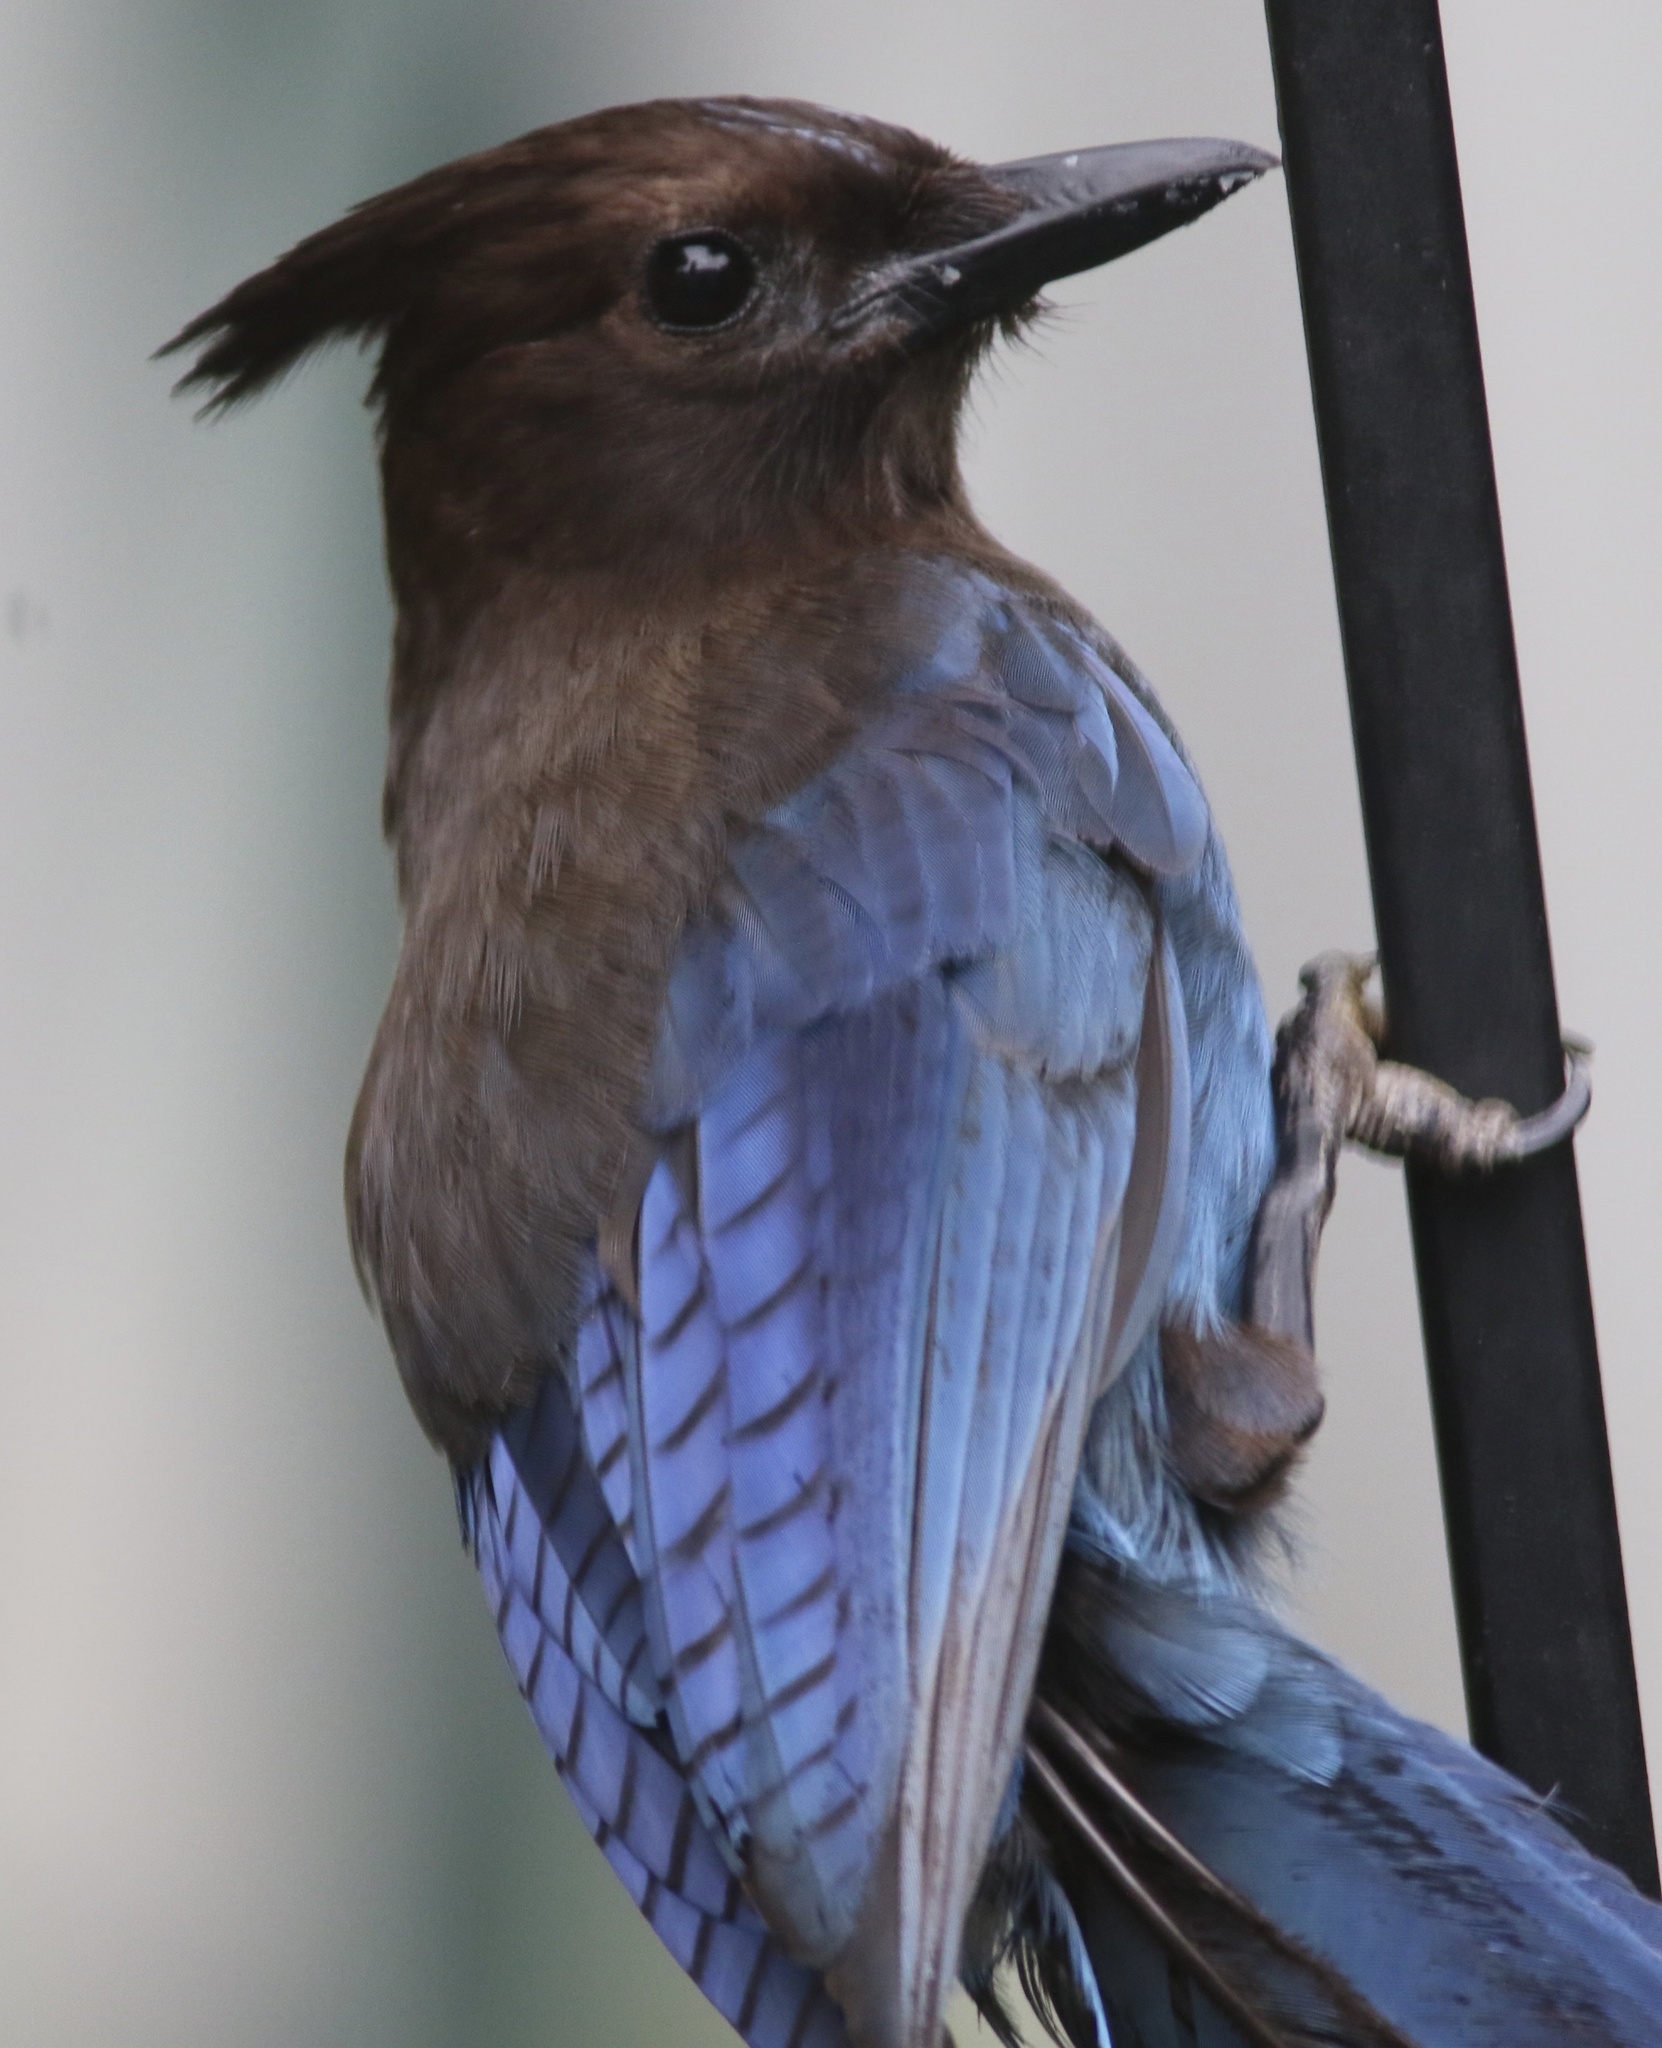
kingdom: Animalia
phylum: Chordata
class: Aves
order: Passeriformes
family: Corvidae
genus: Cyanocitta
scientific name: Cyanocitta stelleri
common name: Steller's jay
